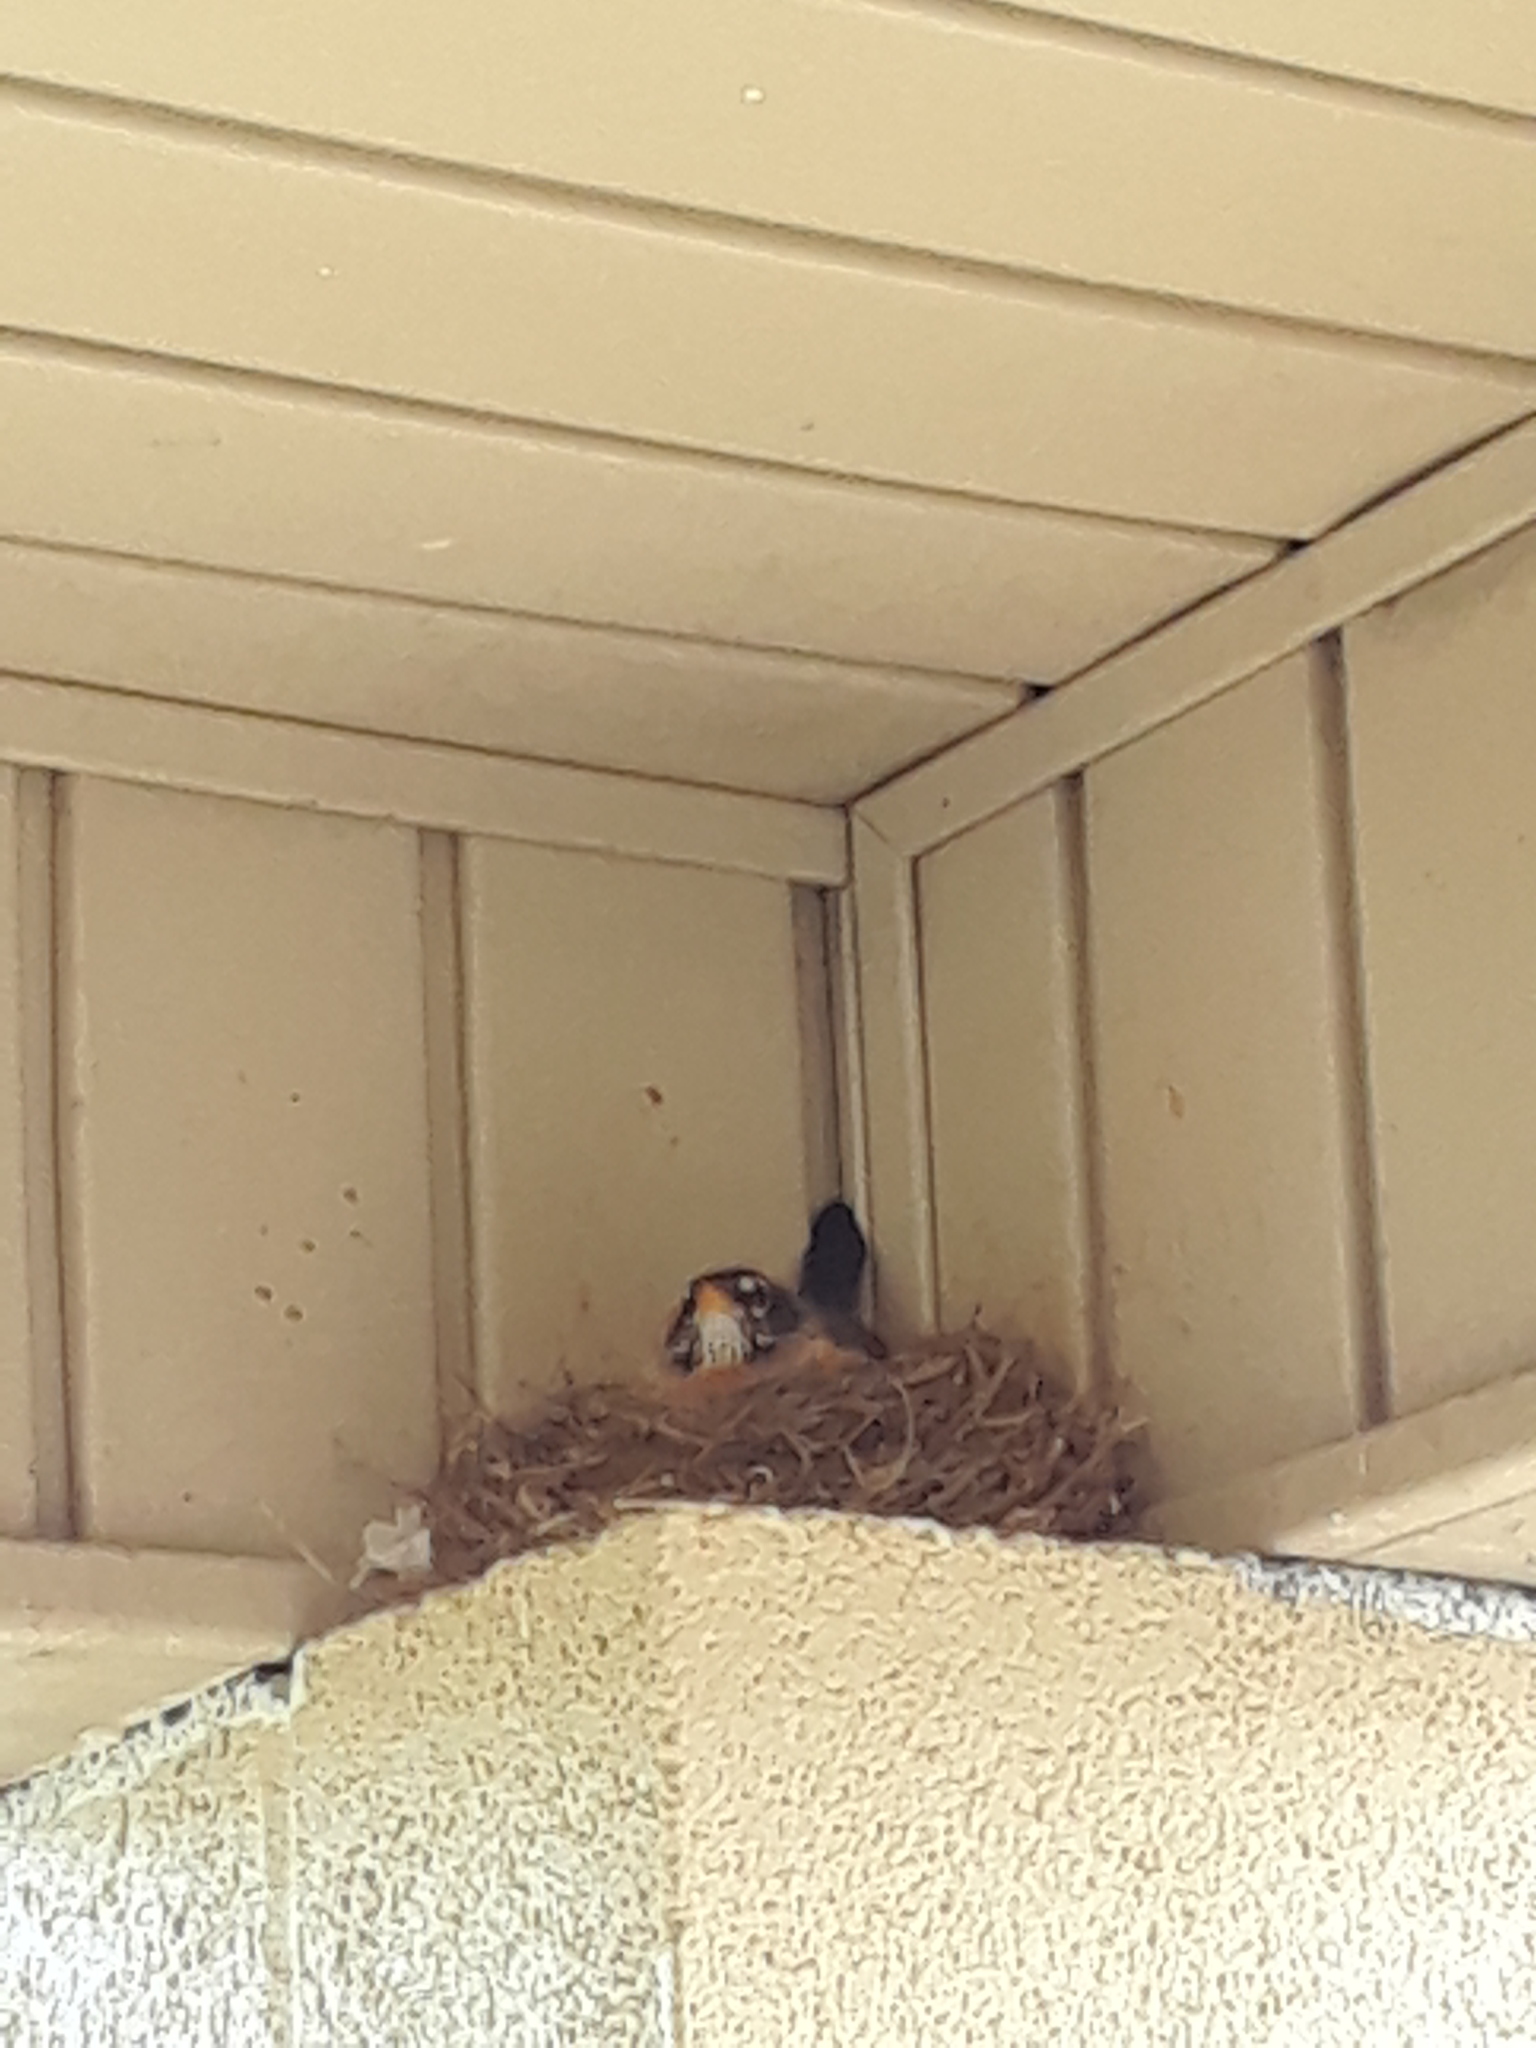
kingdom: Animalia
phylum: Chordata
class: Aves
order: Passeriformes
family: Turdidae
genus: Turdus
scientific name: Turdus migratorius
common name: American robin
